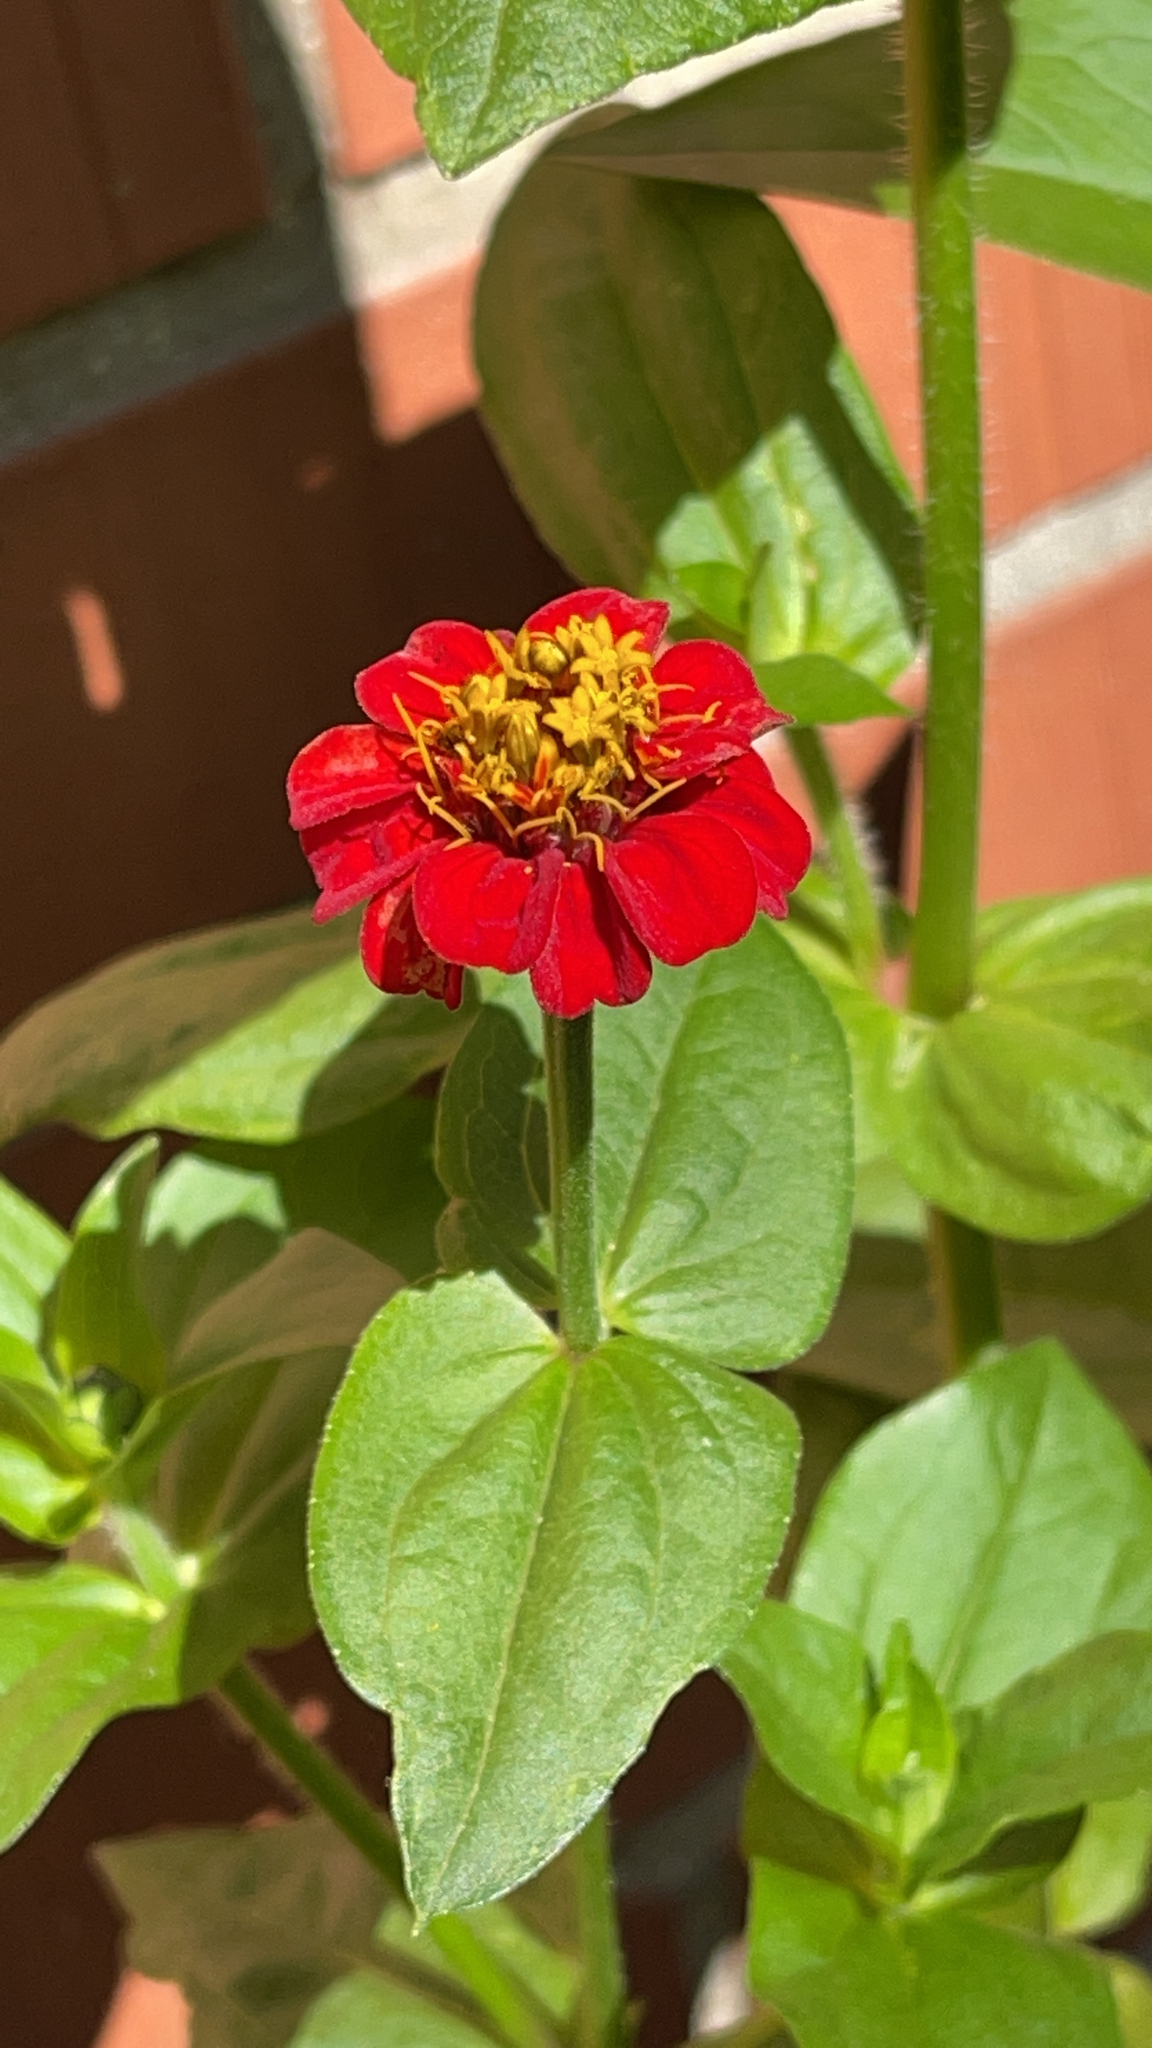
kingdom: Plantae
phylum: Tracheophyta
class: Magnoliopsida
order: Asterales
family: Asteraceae
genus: Zinnia
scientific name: Zinnia elegans
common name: Youth-and-age
